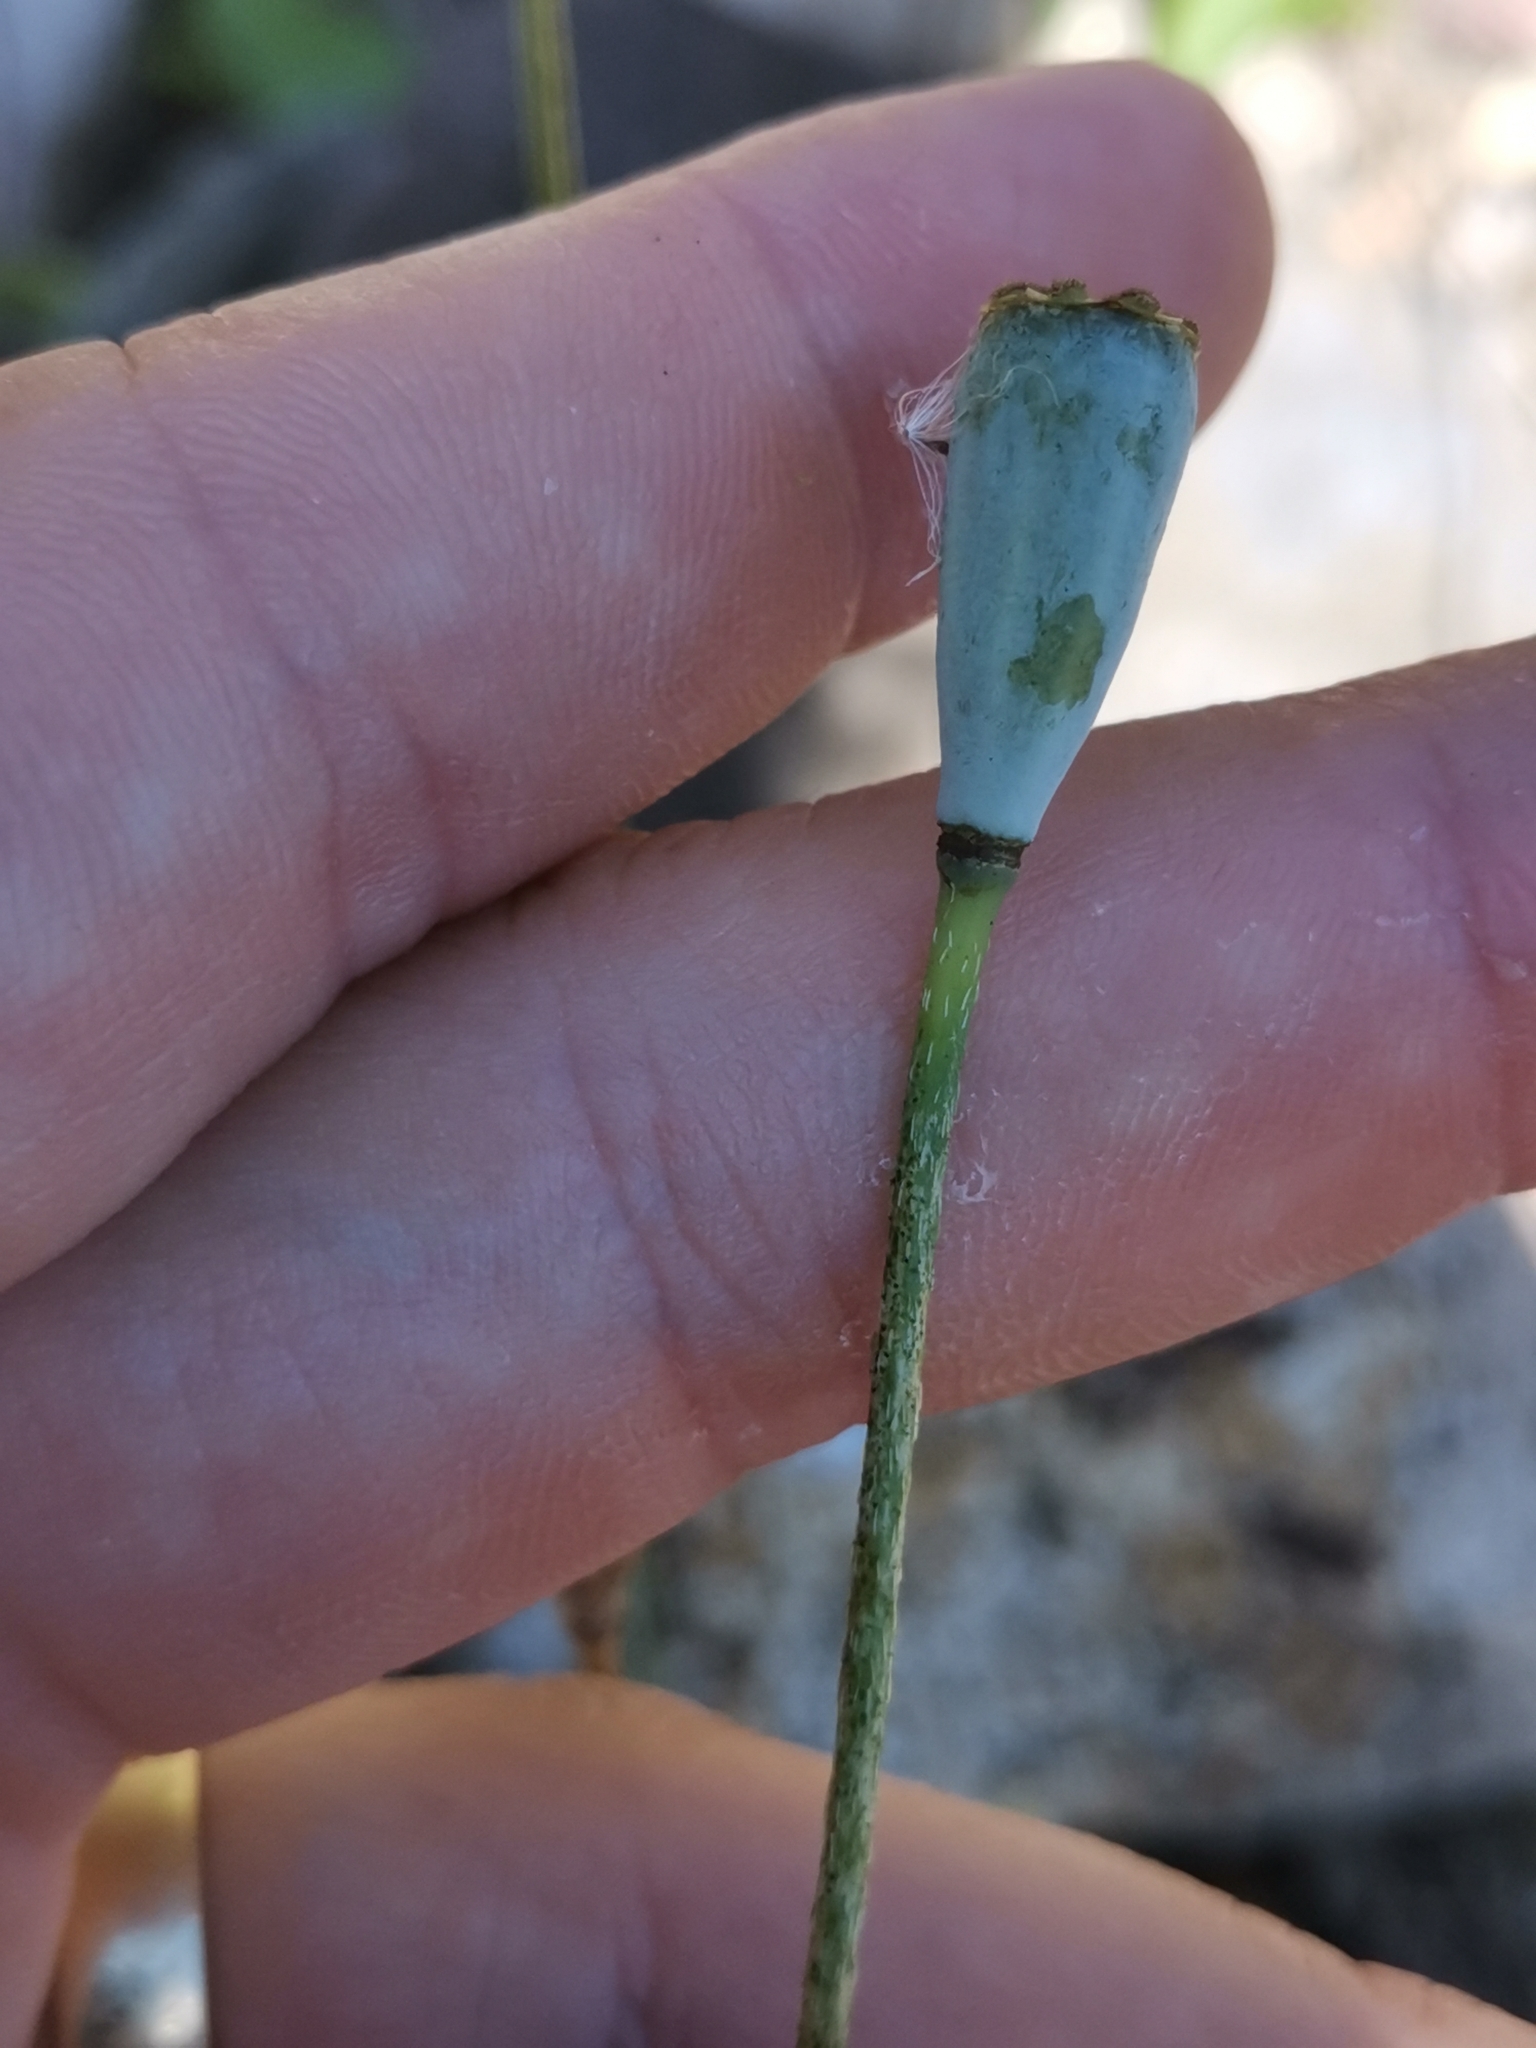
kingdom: Plantae
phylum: Tracheophyta
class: Magnoliopsida
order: Ranunculales
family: Papaveraceae
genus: Papaver
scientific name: Papaver dubium
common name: Long-headed poppy
